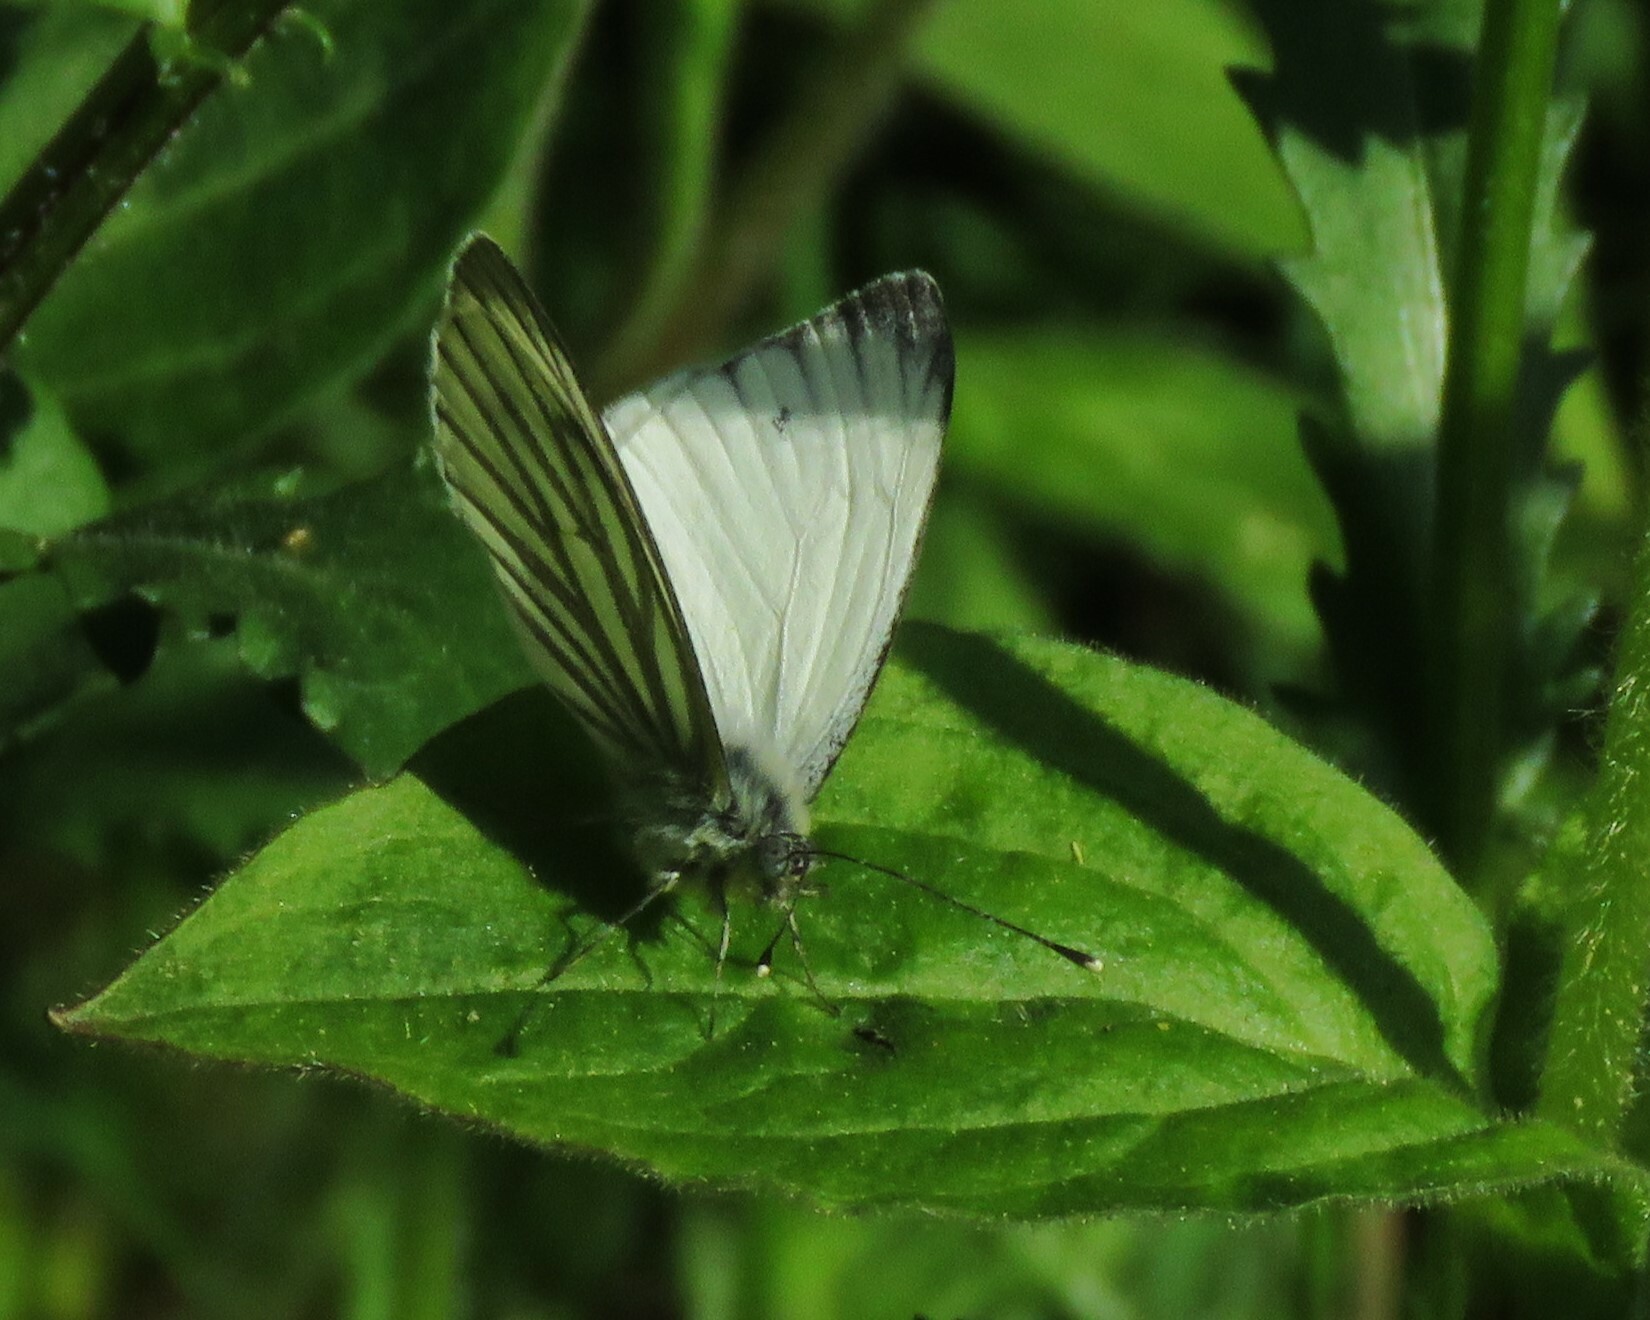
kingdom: Animalia
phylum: Arthropoda
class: Insecta
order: Lepidoptera
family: Pieridae
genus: Pieris
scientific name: Pieris napi
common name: Green-veined white
